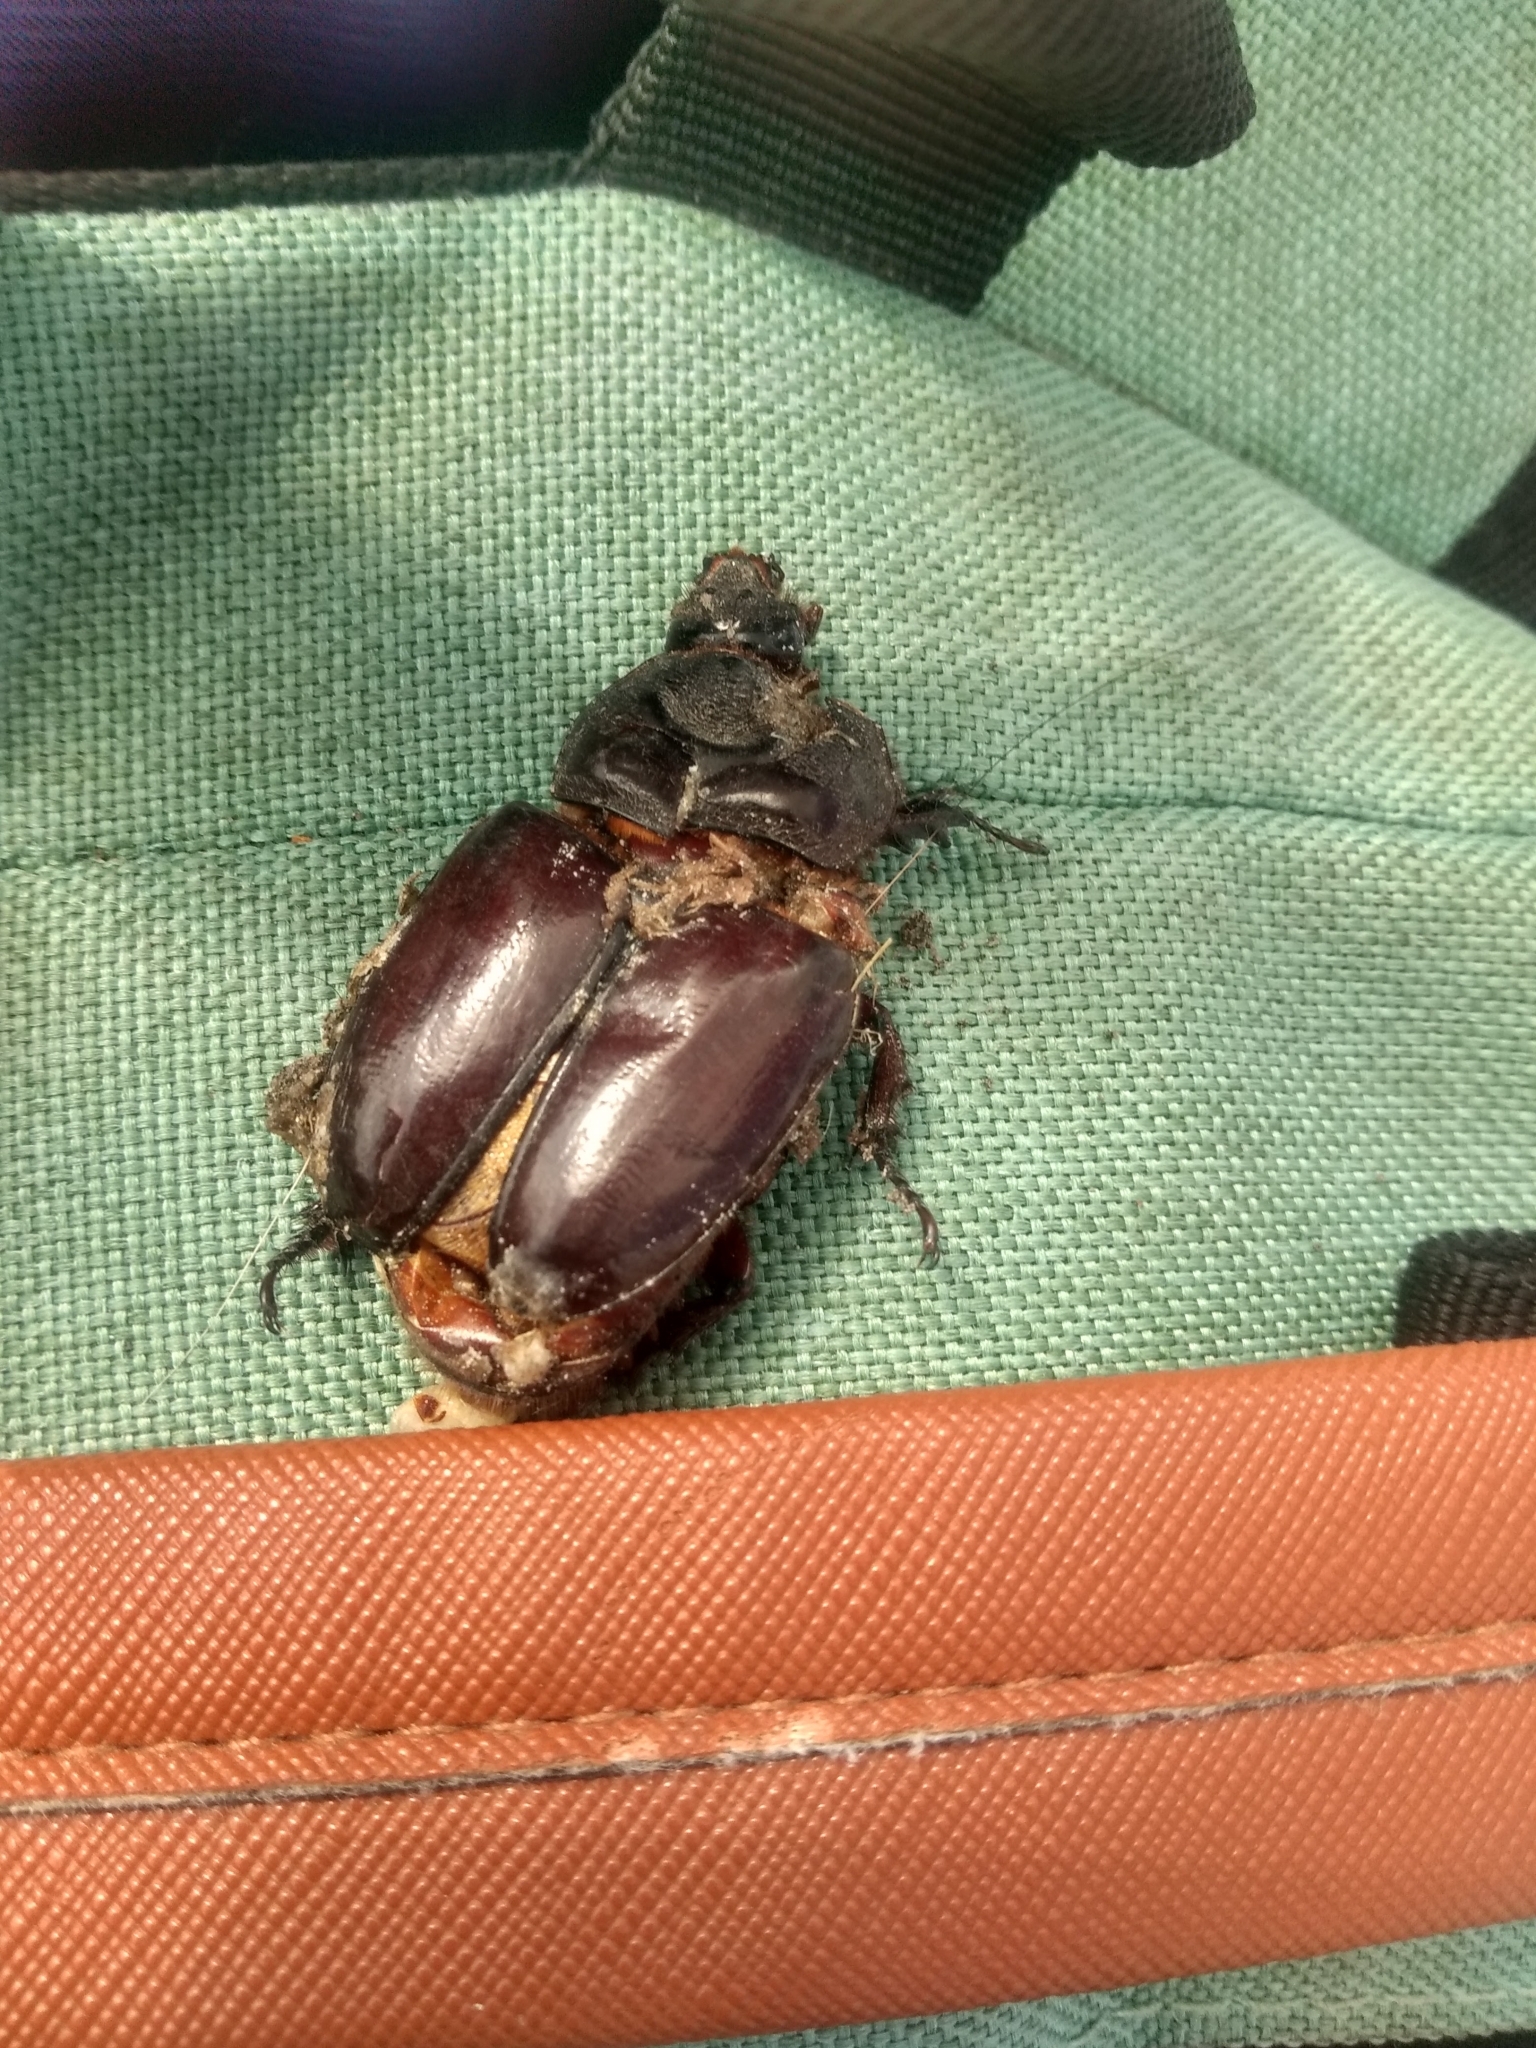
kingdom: Animalia
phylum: Arthropoda
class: Insecta
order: Coleoptera
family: Scarabaeidae
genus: Strategus
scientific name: Strategus aloeus
